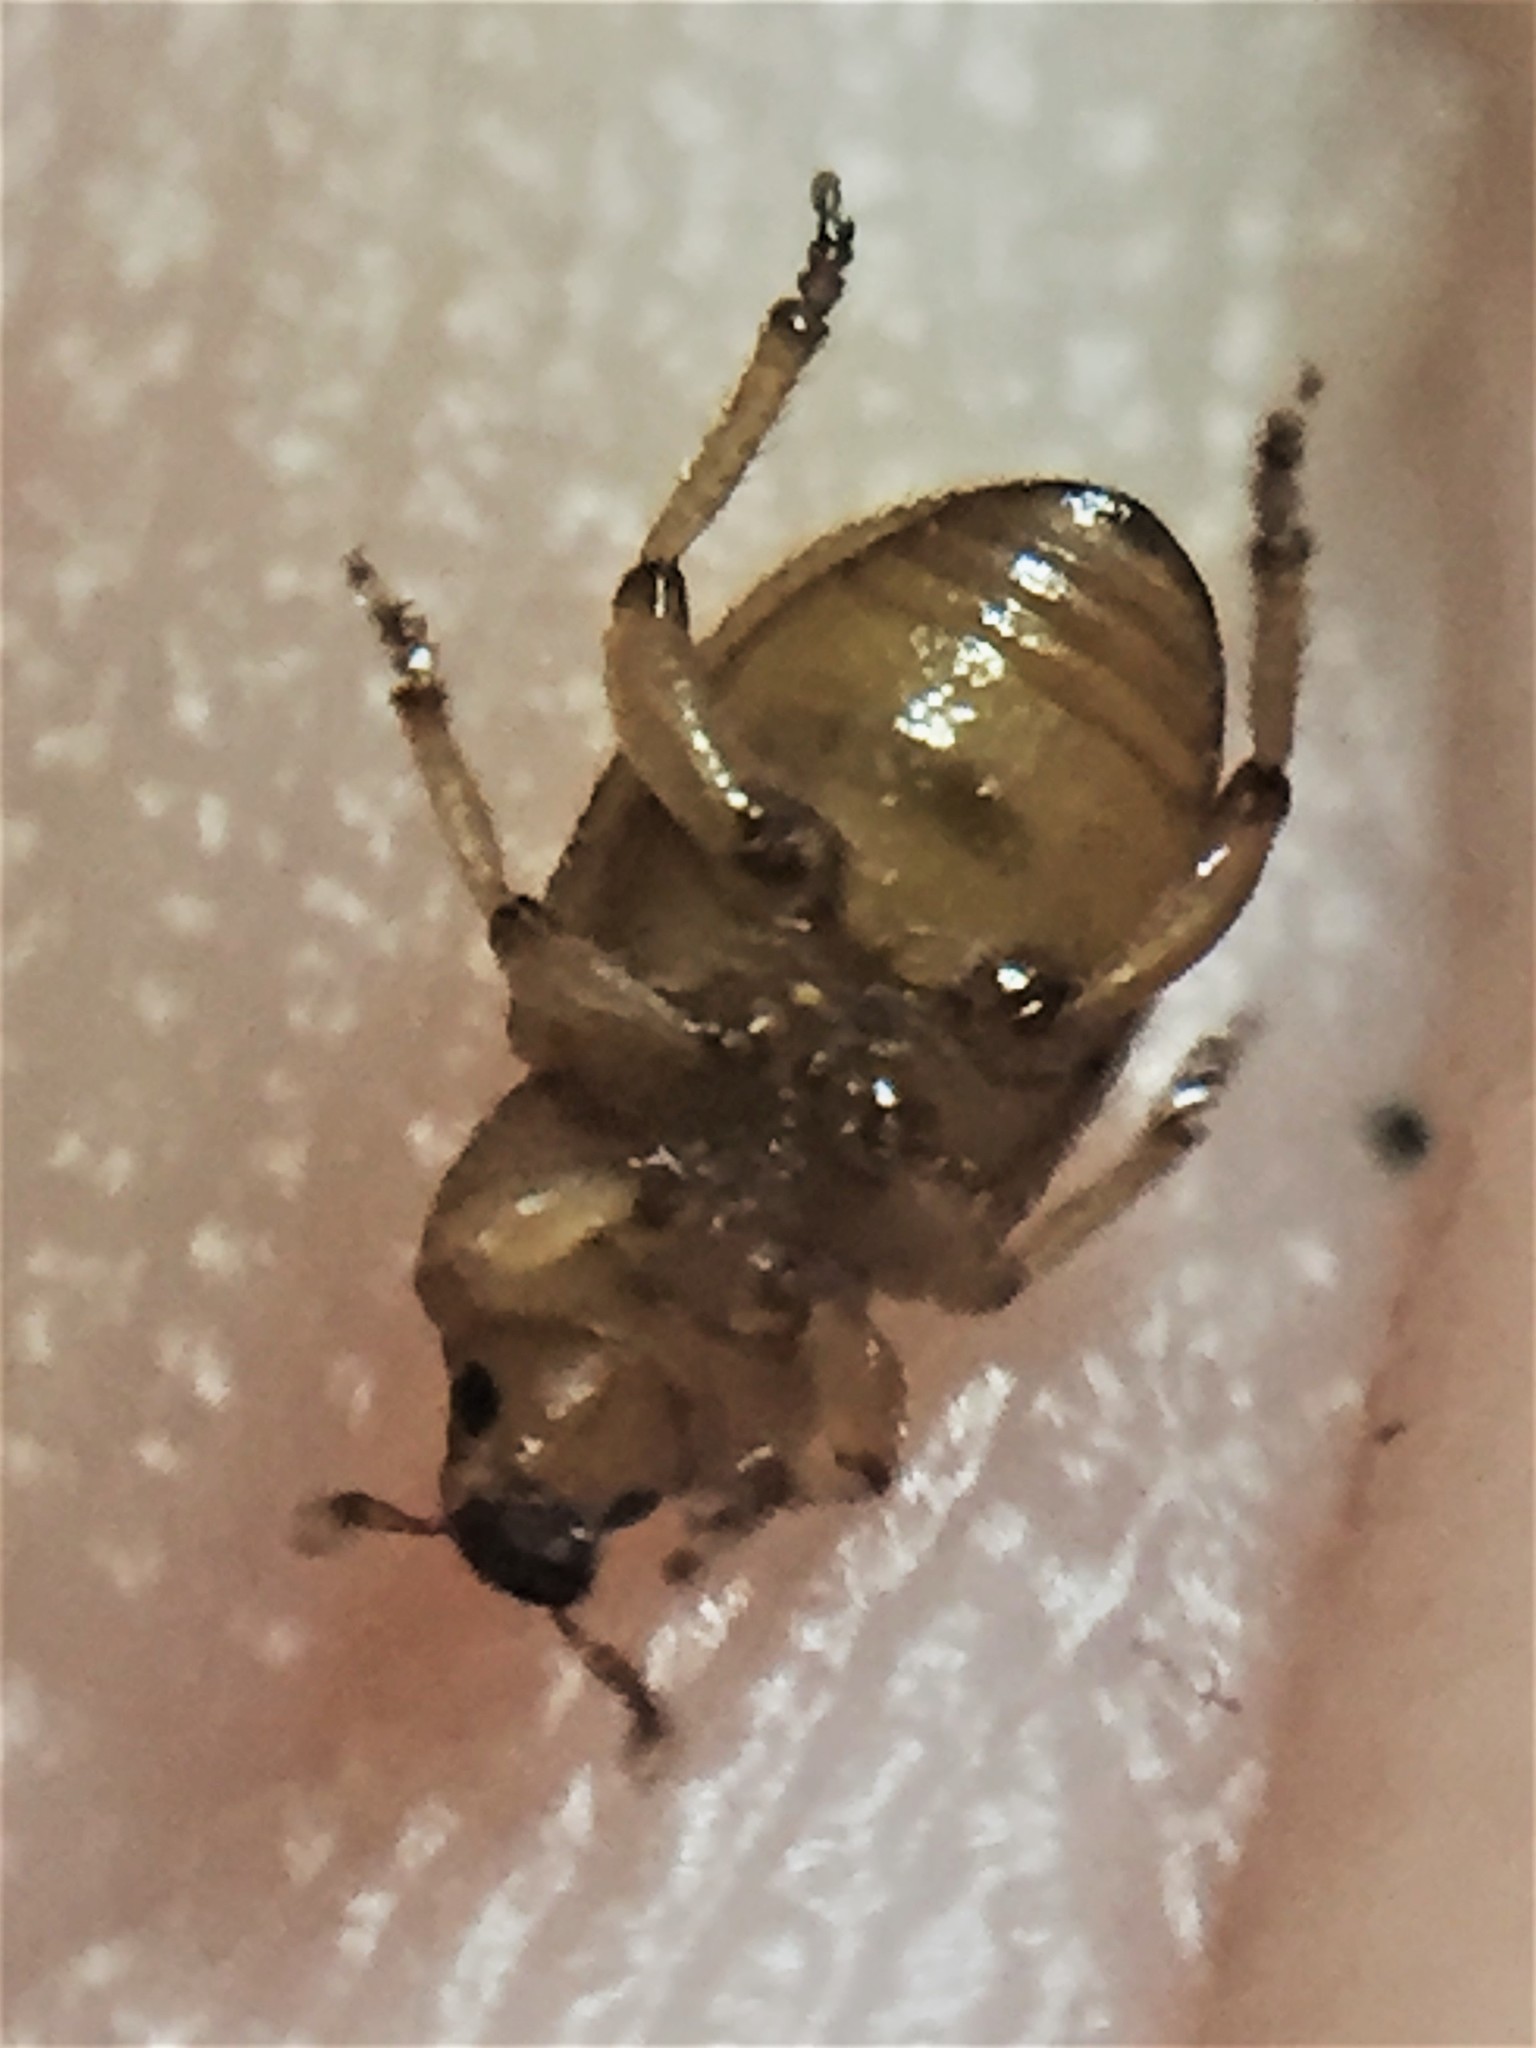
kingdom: Animalia
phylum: Arthropoda
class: Insecta
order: Coleoptera
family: Curculionidae
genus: Aphela
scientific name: Aphela algarum
